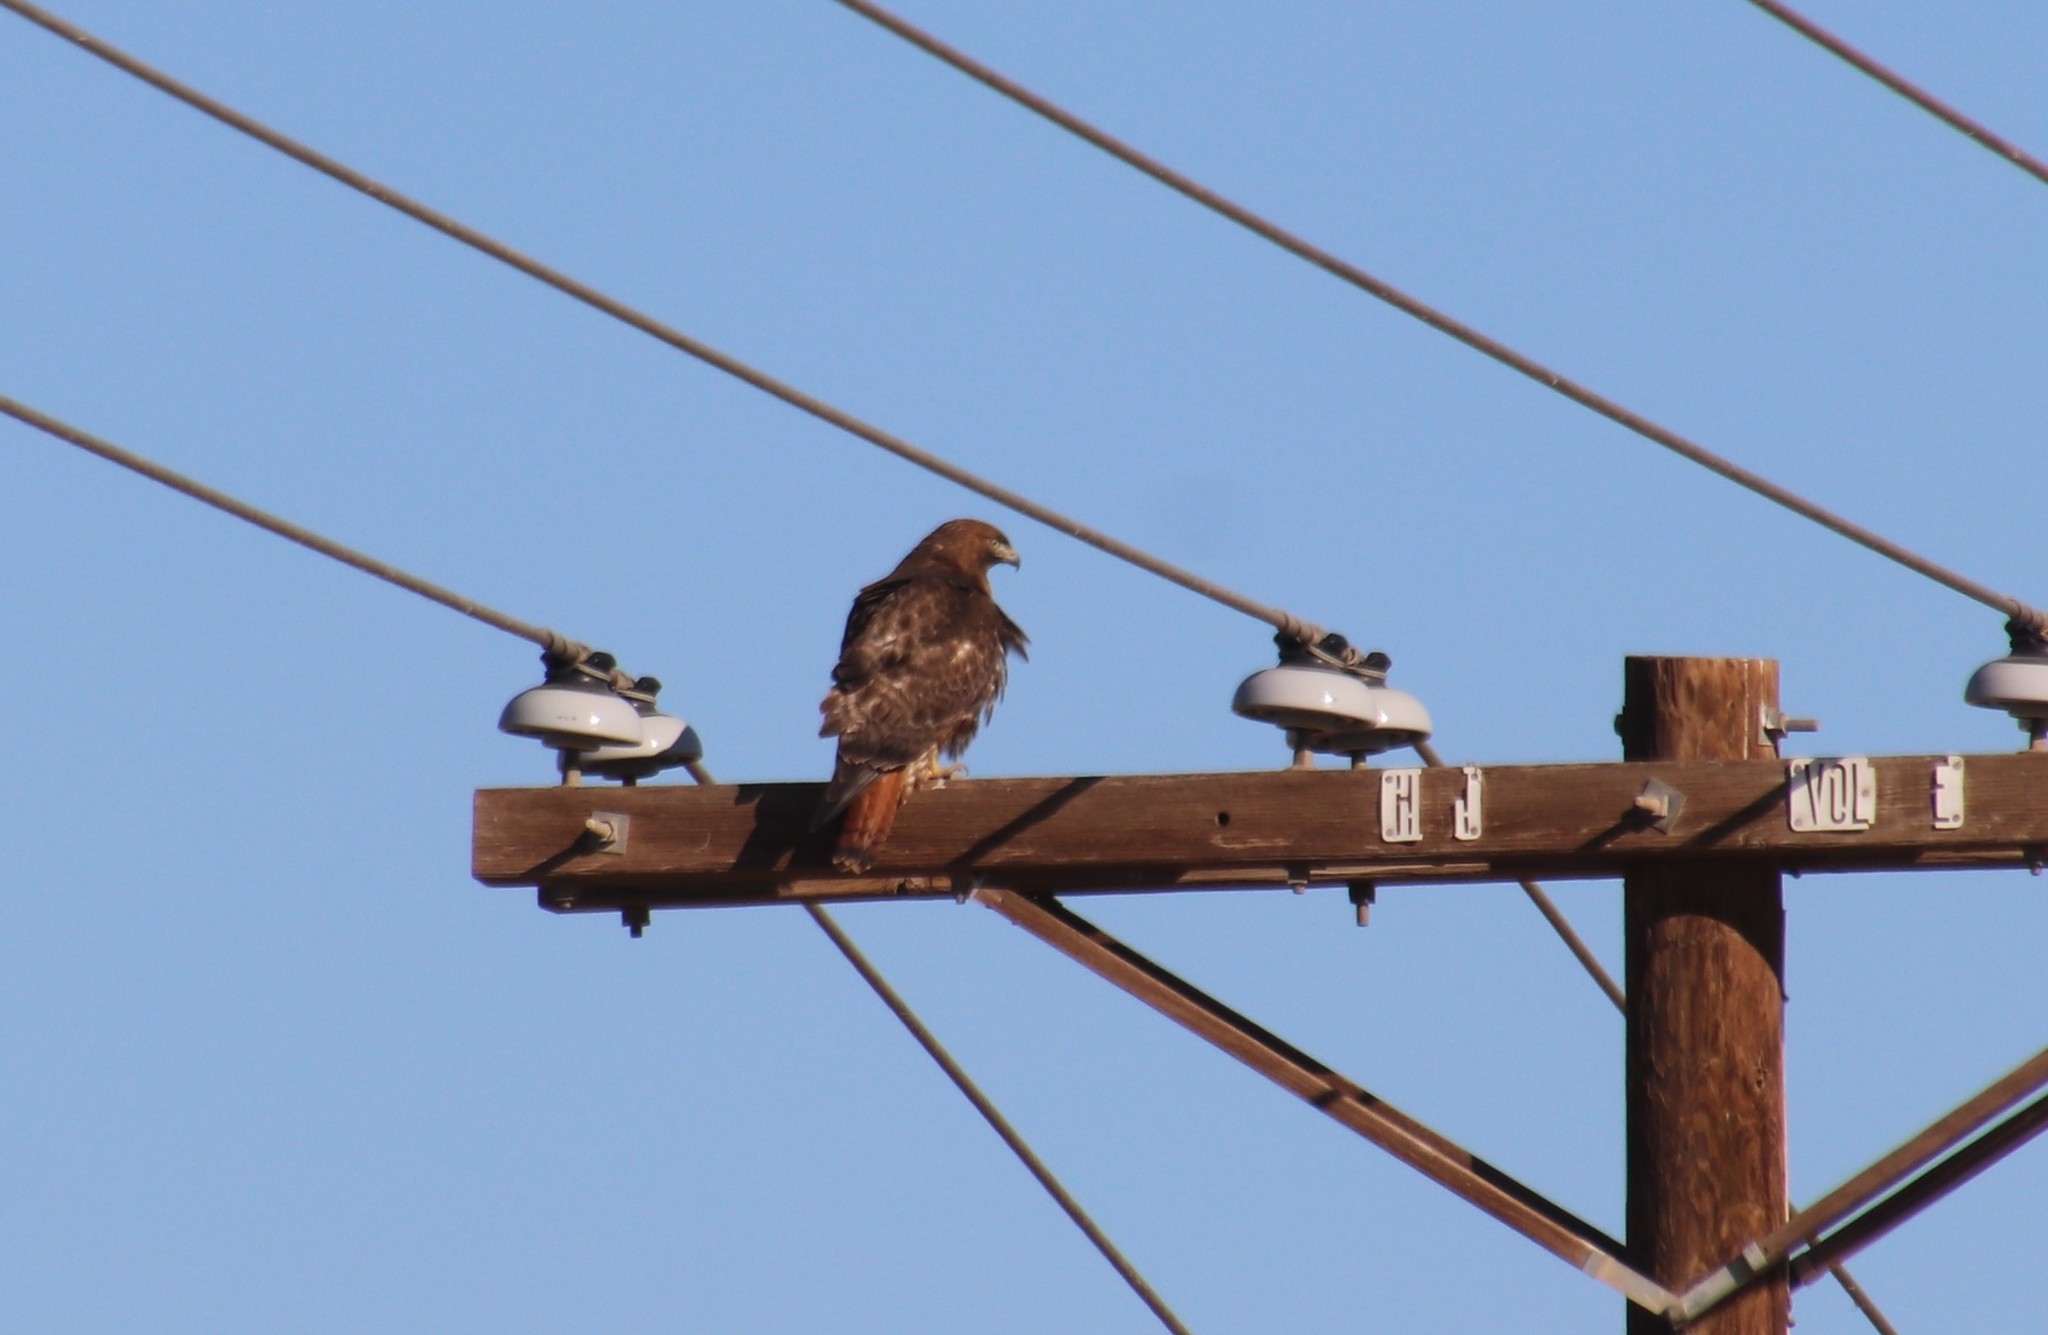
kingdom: Animalia
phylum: Chordata
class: Aves
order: Accipitriformes
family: Accipitridae
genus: Buteo
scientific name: Buteo jamaicensis
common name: Red-tailed hawk
